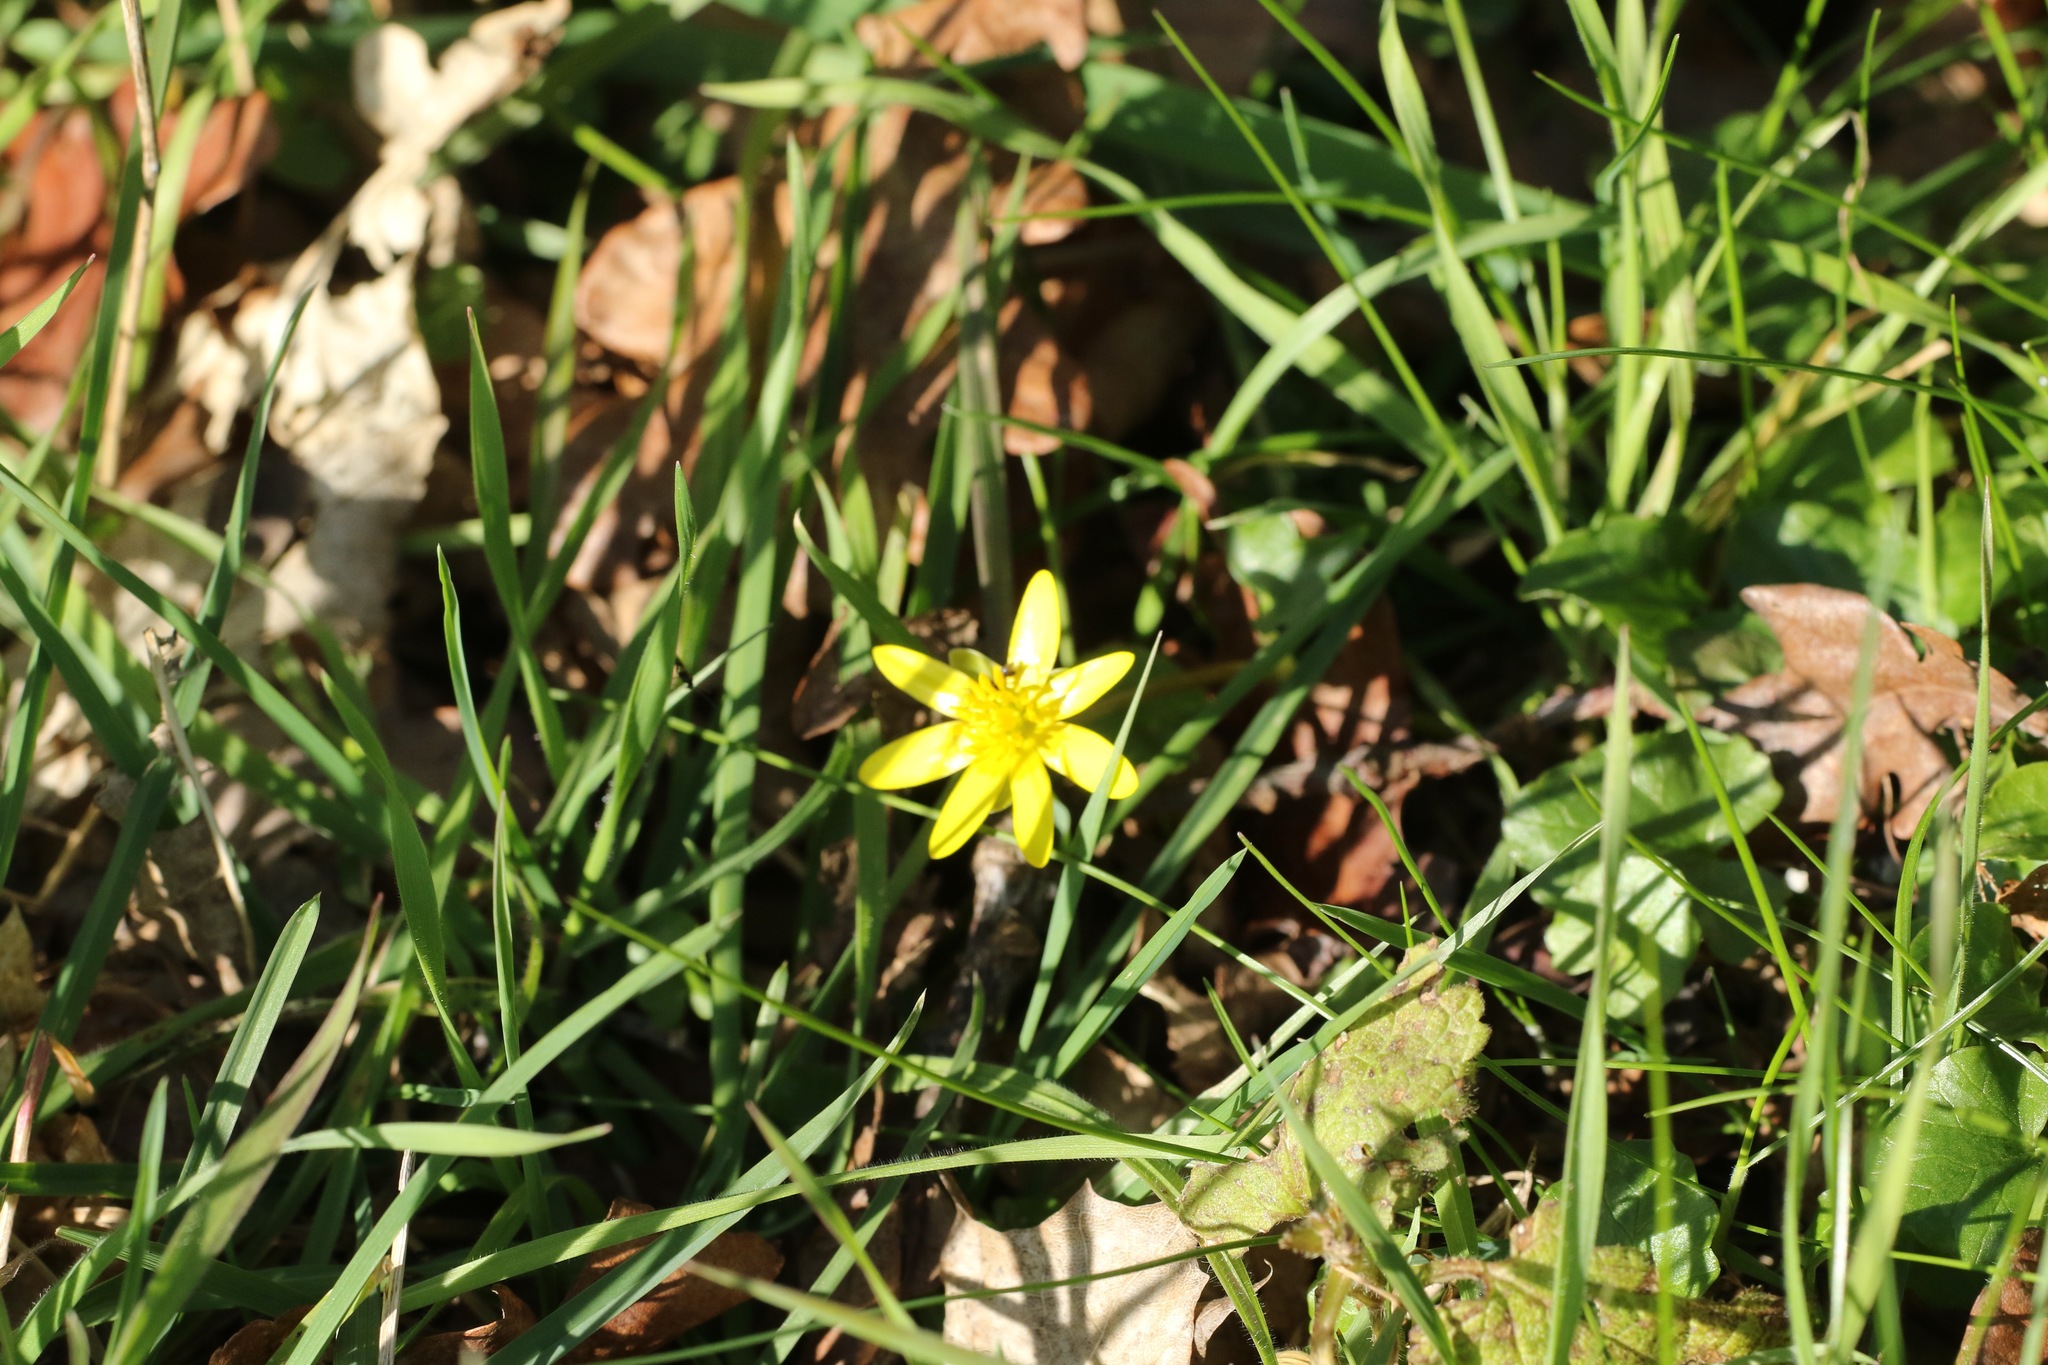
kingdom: Plantae
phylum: Tracheophyta
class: Magnoliopsida
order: Ranunculales
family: Ranunculaceae
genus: Ficaria
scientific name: Ficaria verna
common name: Lesser celandine
